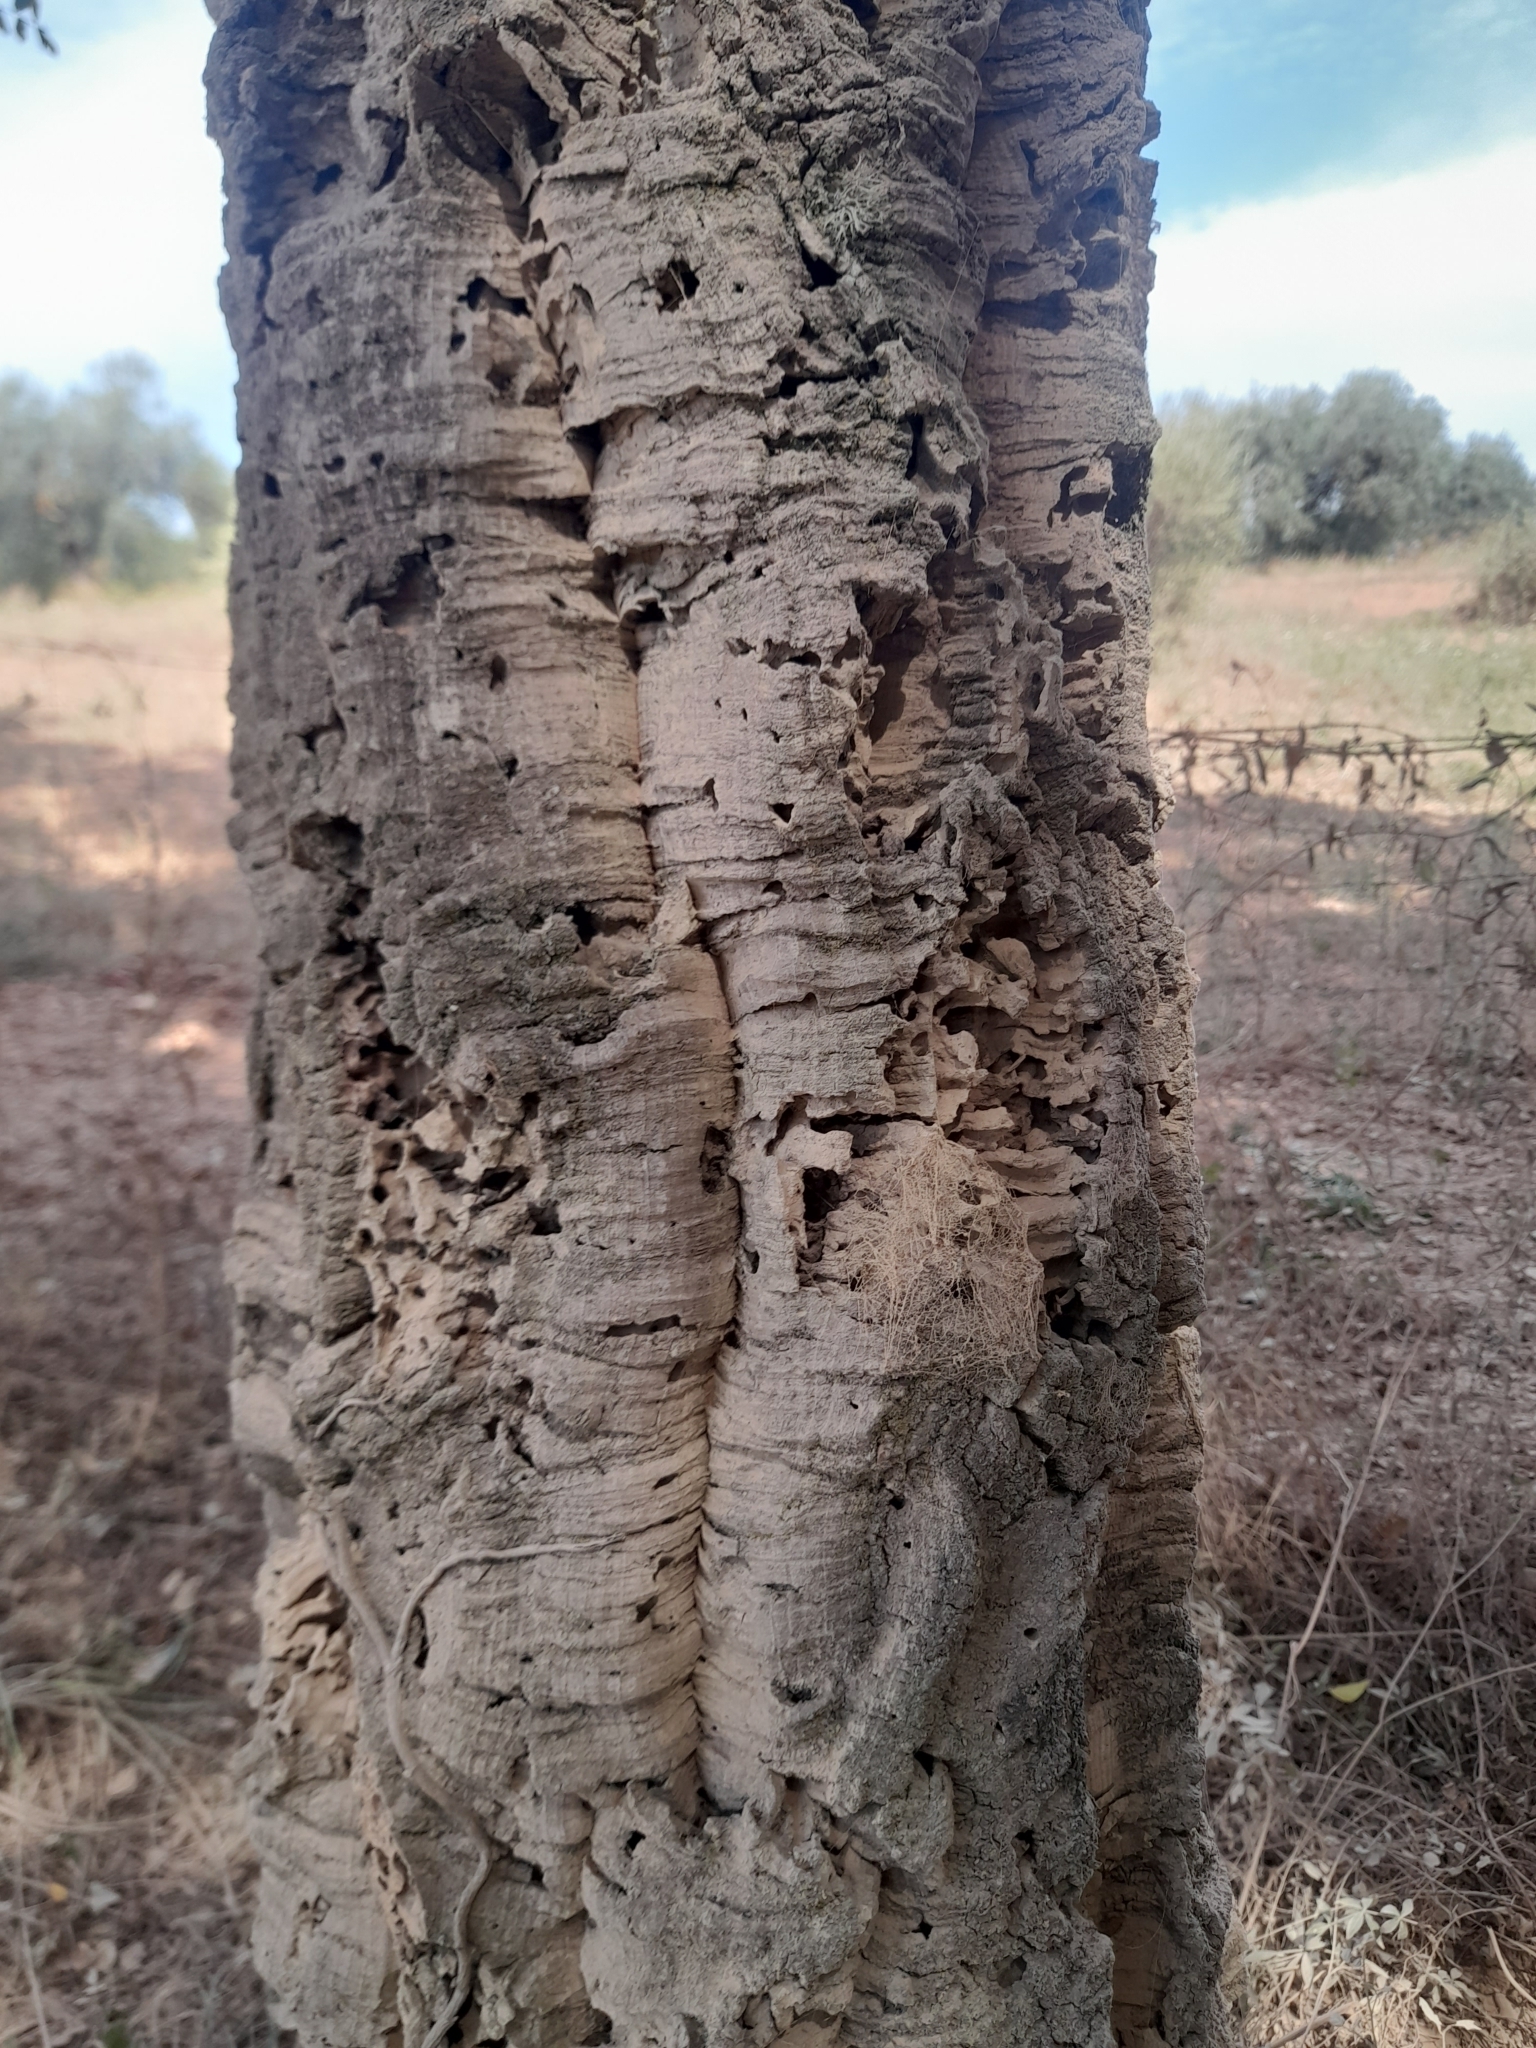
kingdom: Plantae
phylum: Tracheophyta
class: Magnoliopsida
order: Fagales
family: Fagaceae
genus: Quercus
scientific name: Quercus suber
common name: Cork oak
